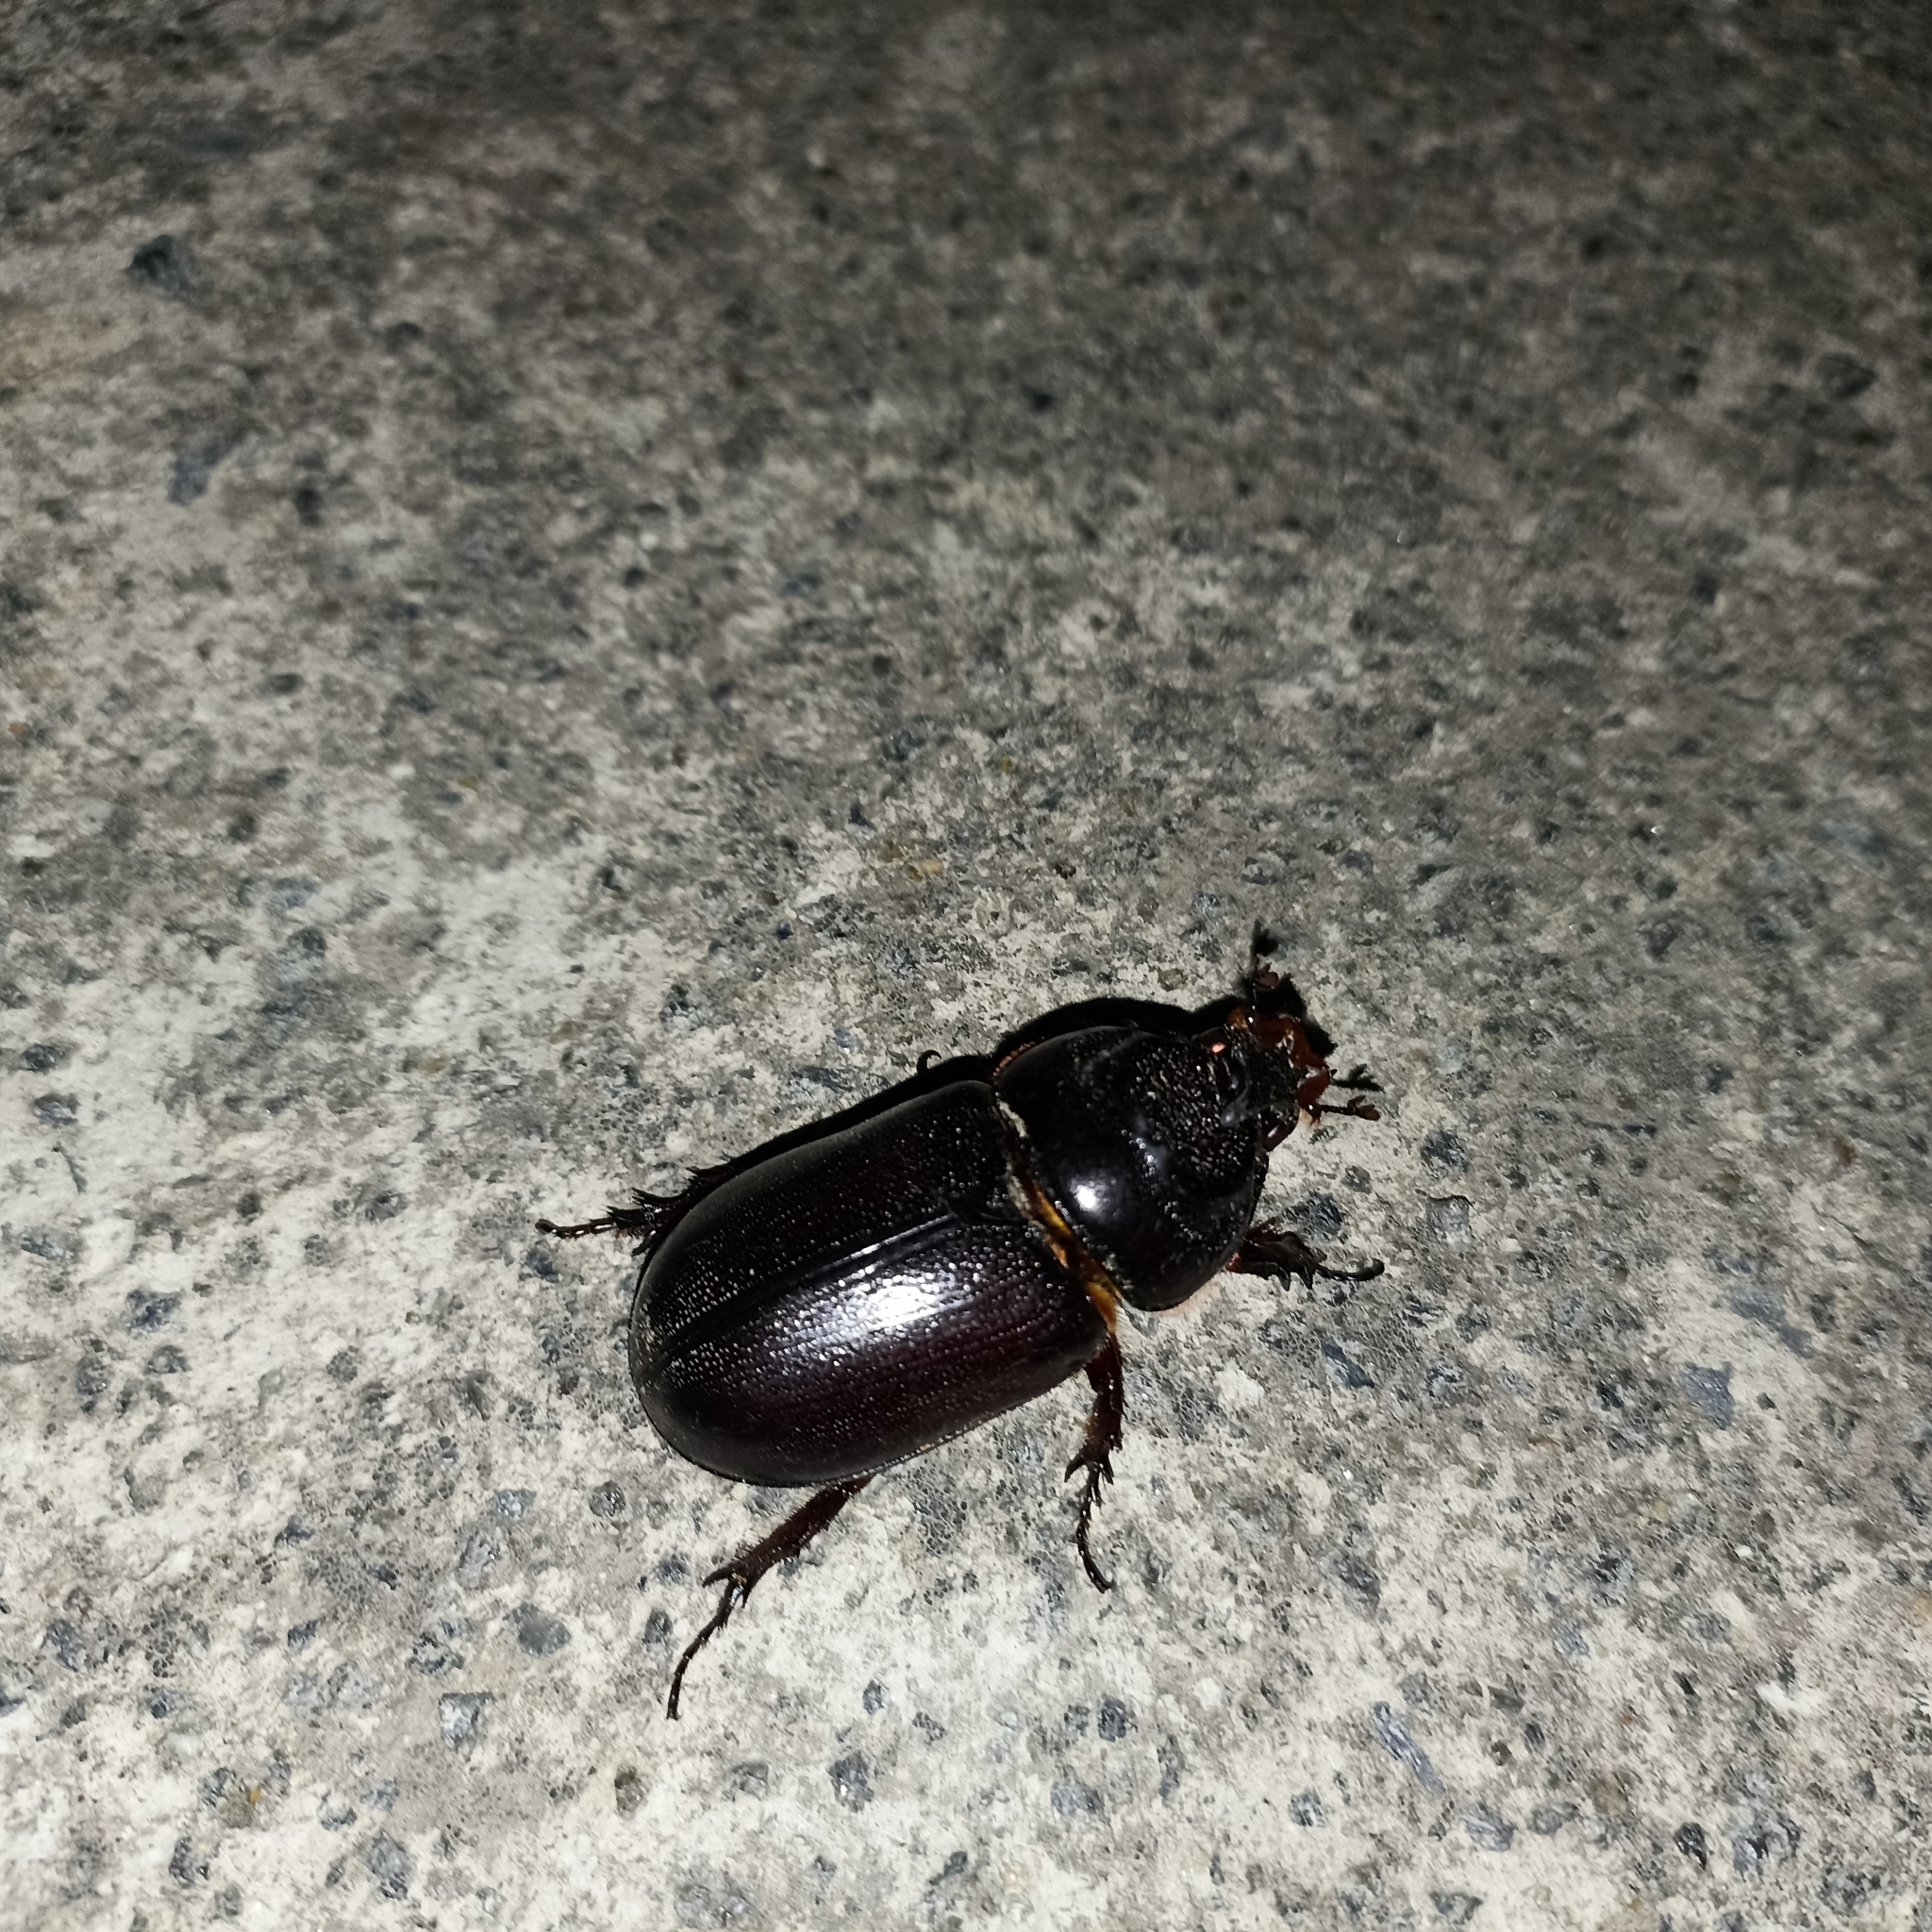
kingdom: Animalia
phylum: Arthropoda
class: Insecta
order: Coleoptera
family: Scarabaeidae
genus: Oryctes
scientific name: Oryctes rhinoceros
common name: Coconut rhinoceros beetle
